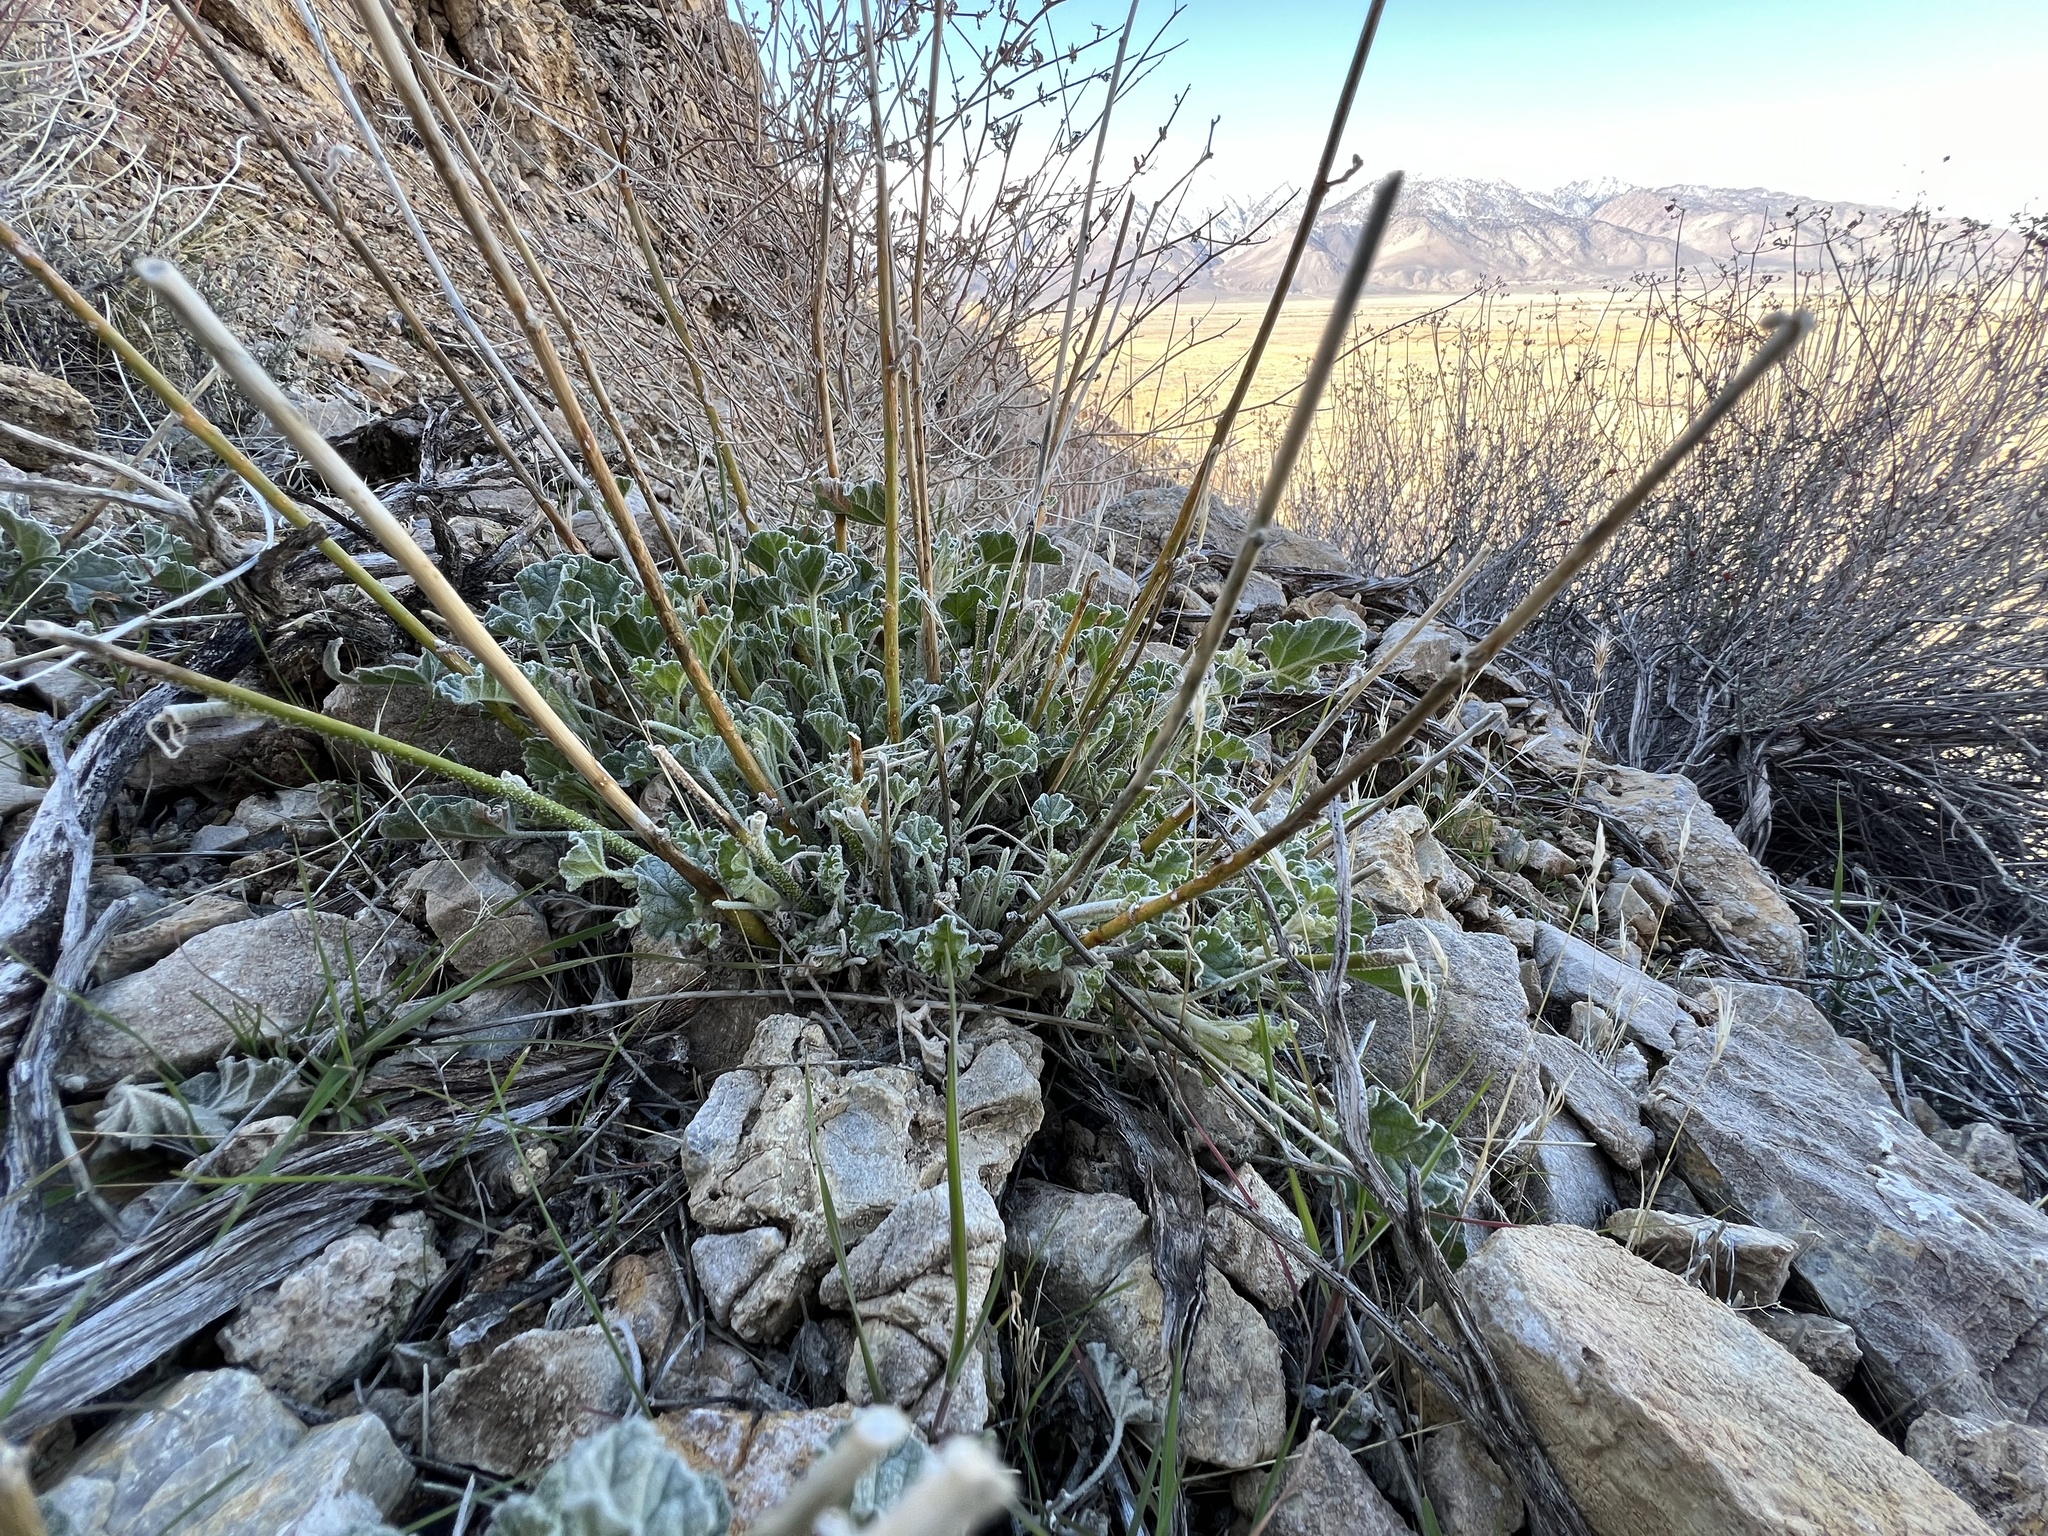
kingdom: Plantae
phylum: Tracheophyta
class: Magnoliopsida
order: Malvales
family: Malvaceae
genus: Sphaeralcea
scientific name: Sphaeralcea ambigua
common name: Apricot globe-mallow
